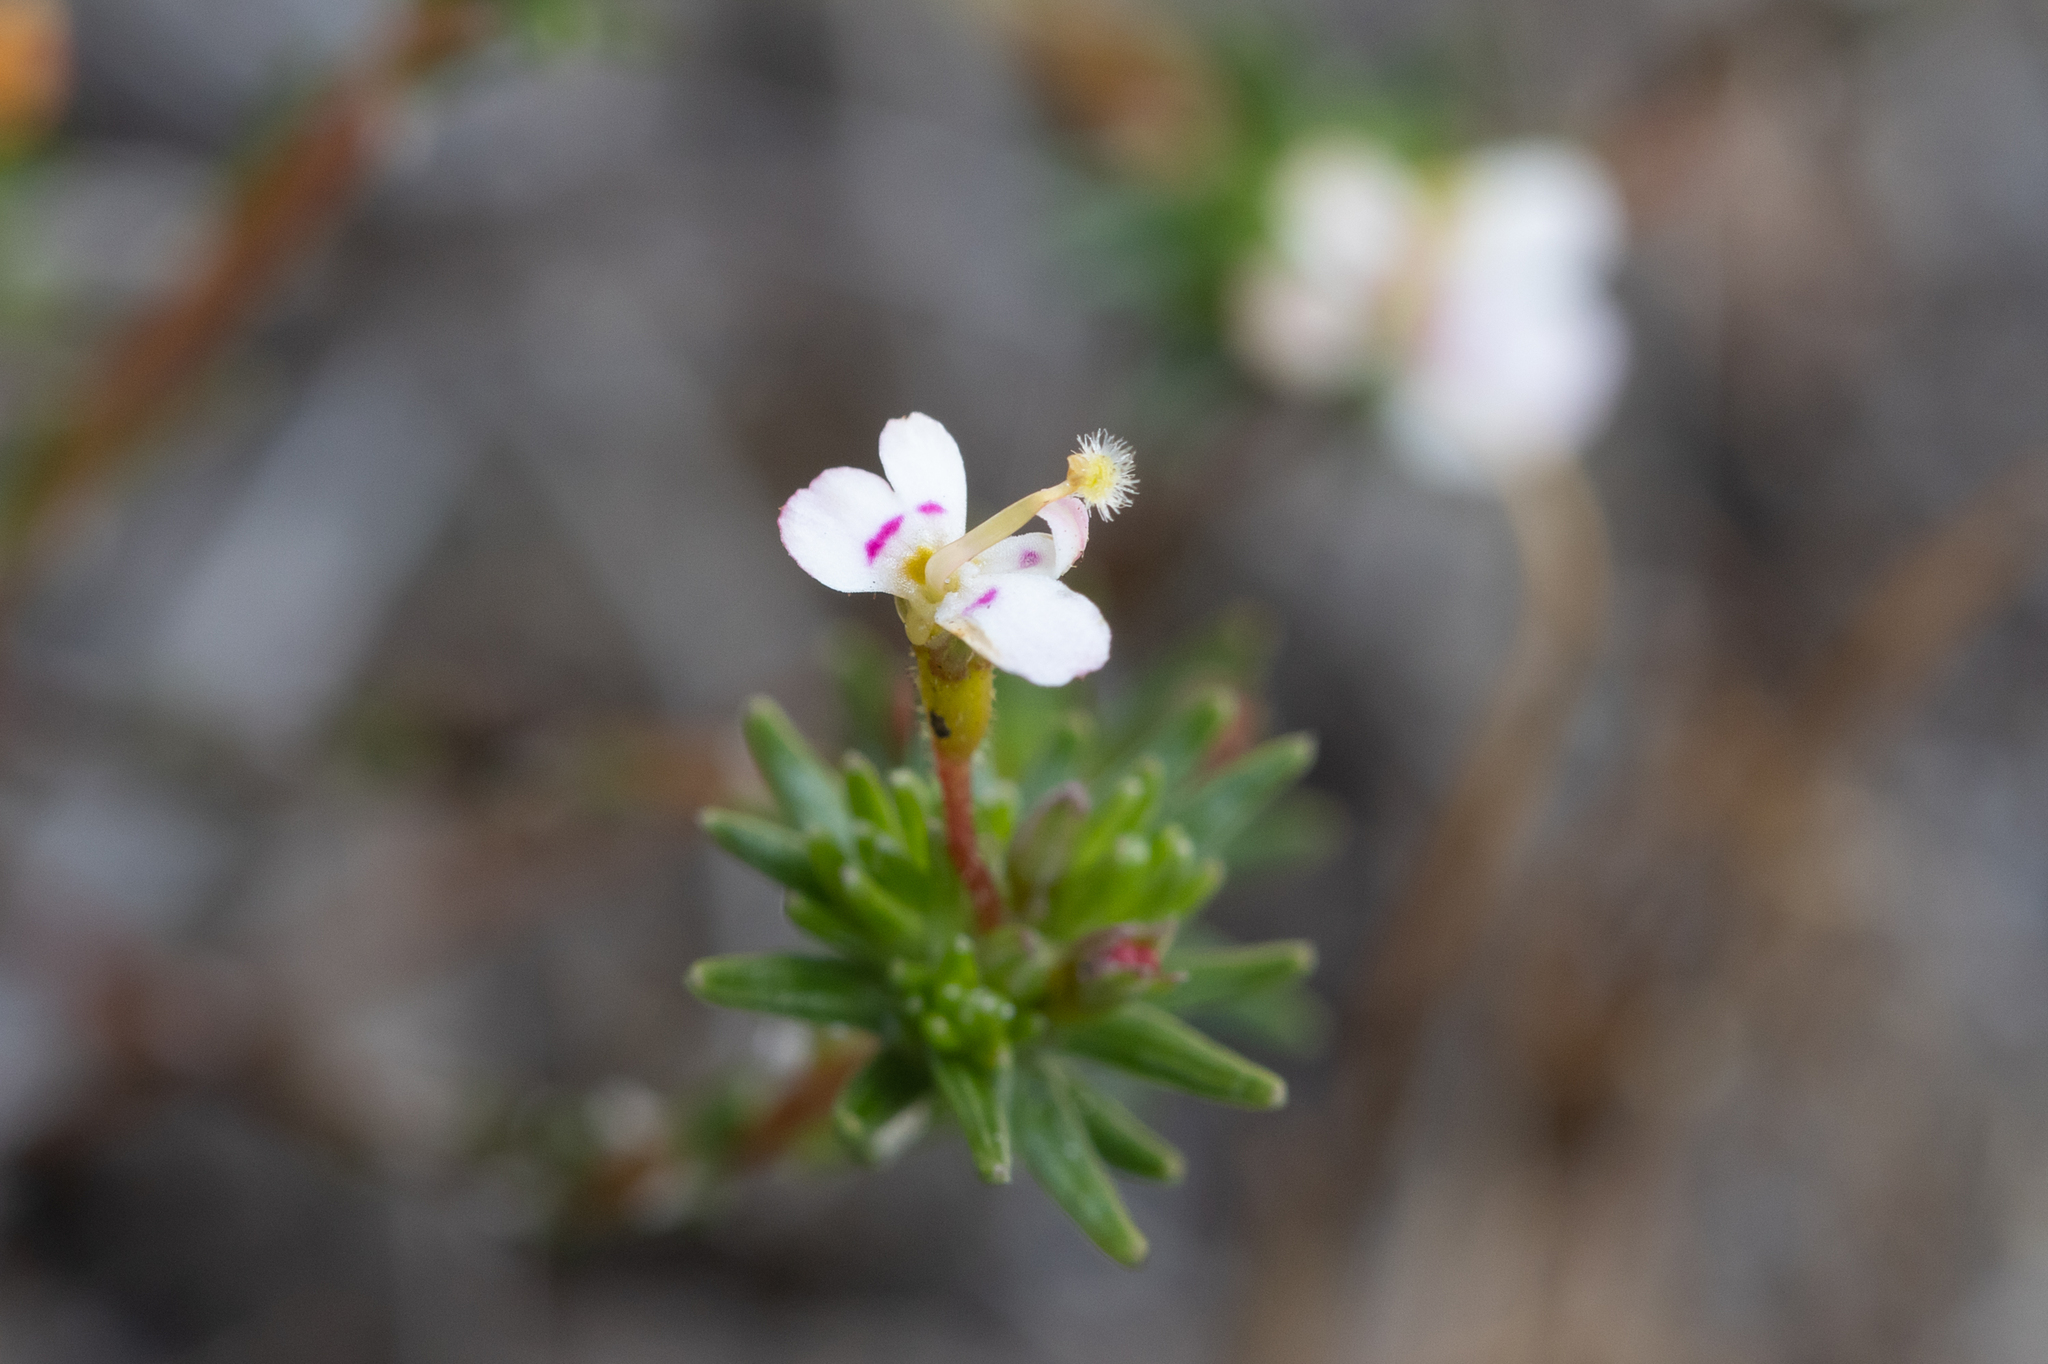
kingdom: Plantae
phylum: Tracheophyta
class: Magnoliopsida
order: Asterales
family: Stylidiaceae
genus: Stylidium
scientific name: Stylidium repens
